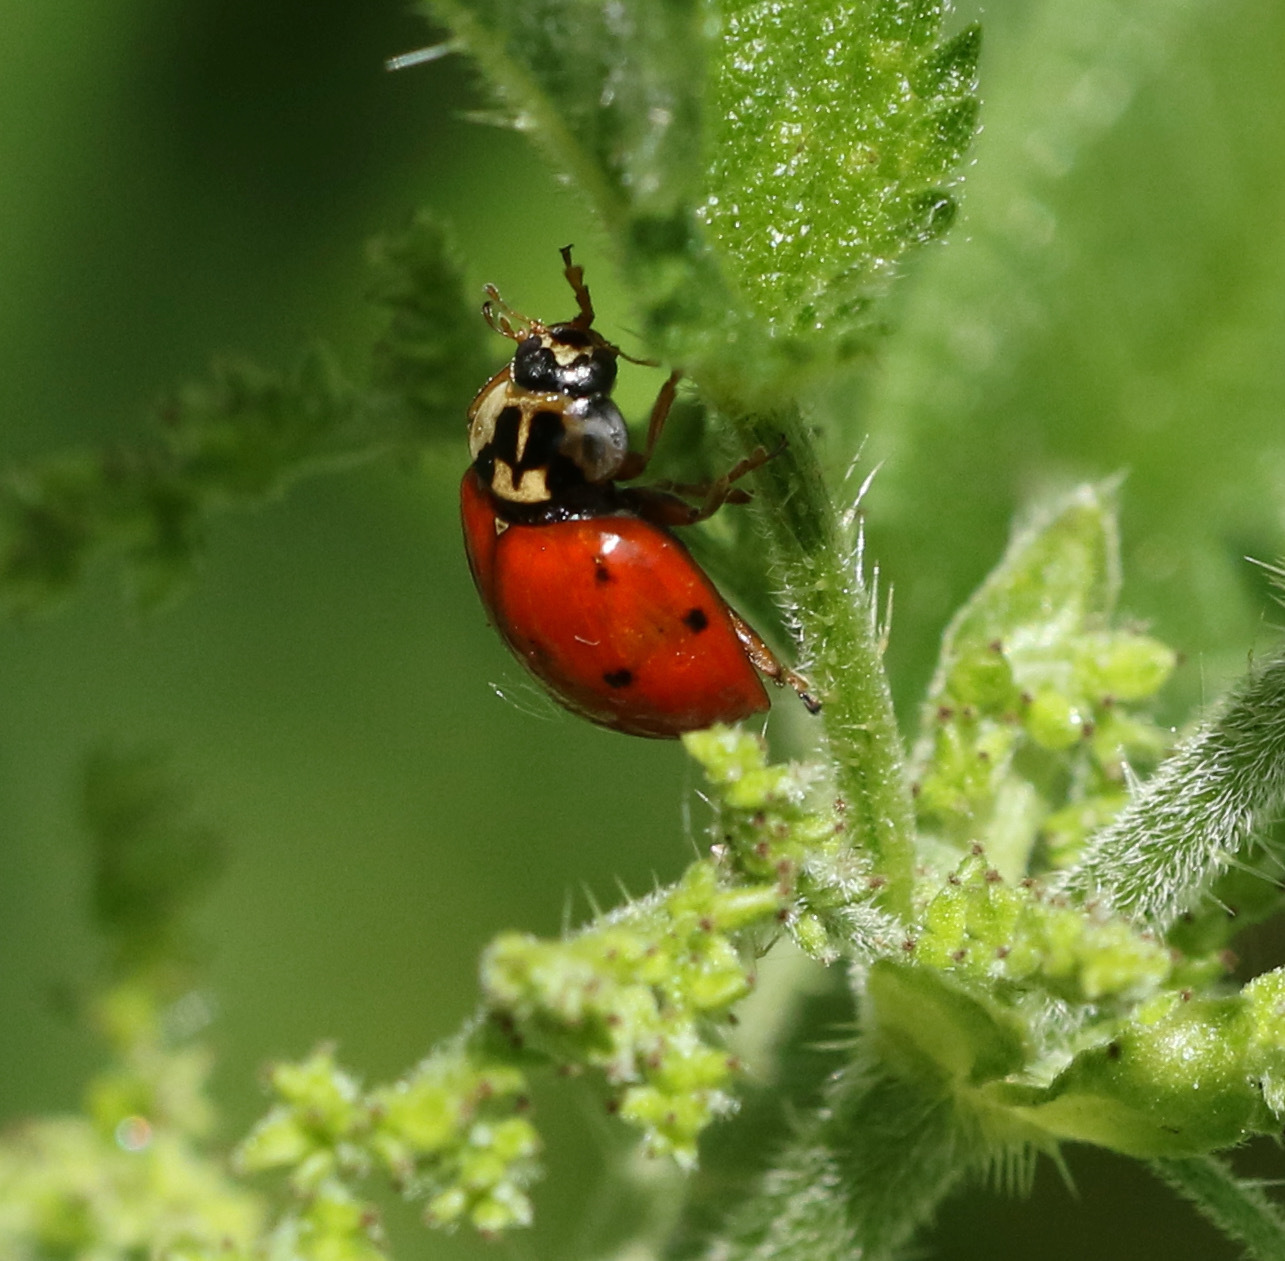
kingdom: Animalia
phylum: Arthropoda
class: Insecta
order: Coleoptera
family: Coccinellidae
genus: Harmonia
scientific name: Harmonia axyridis
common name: Harlequin ladybird
